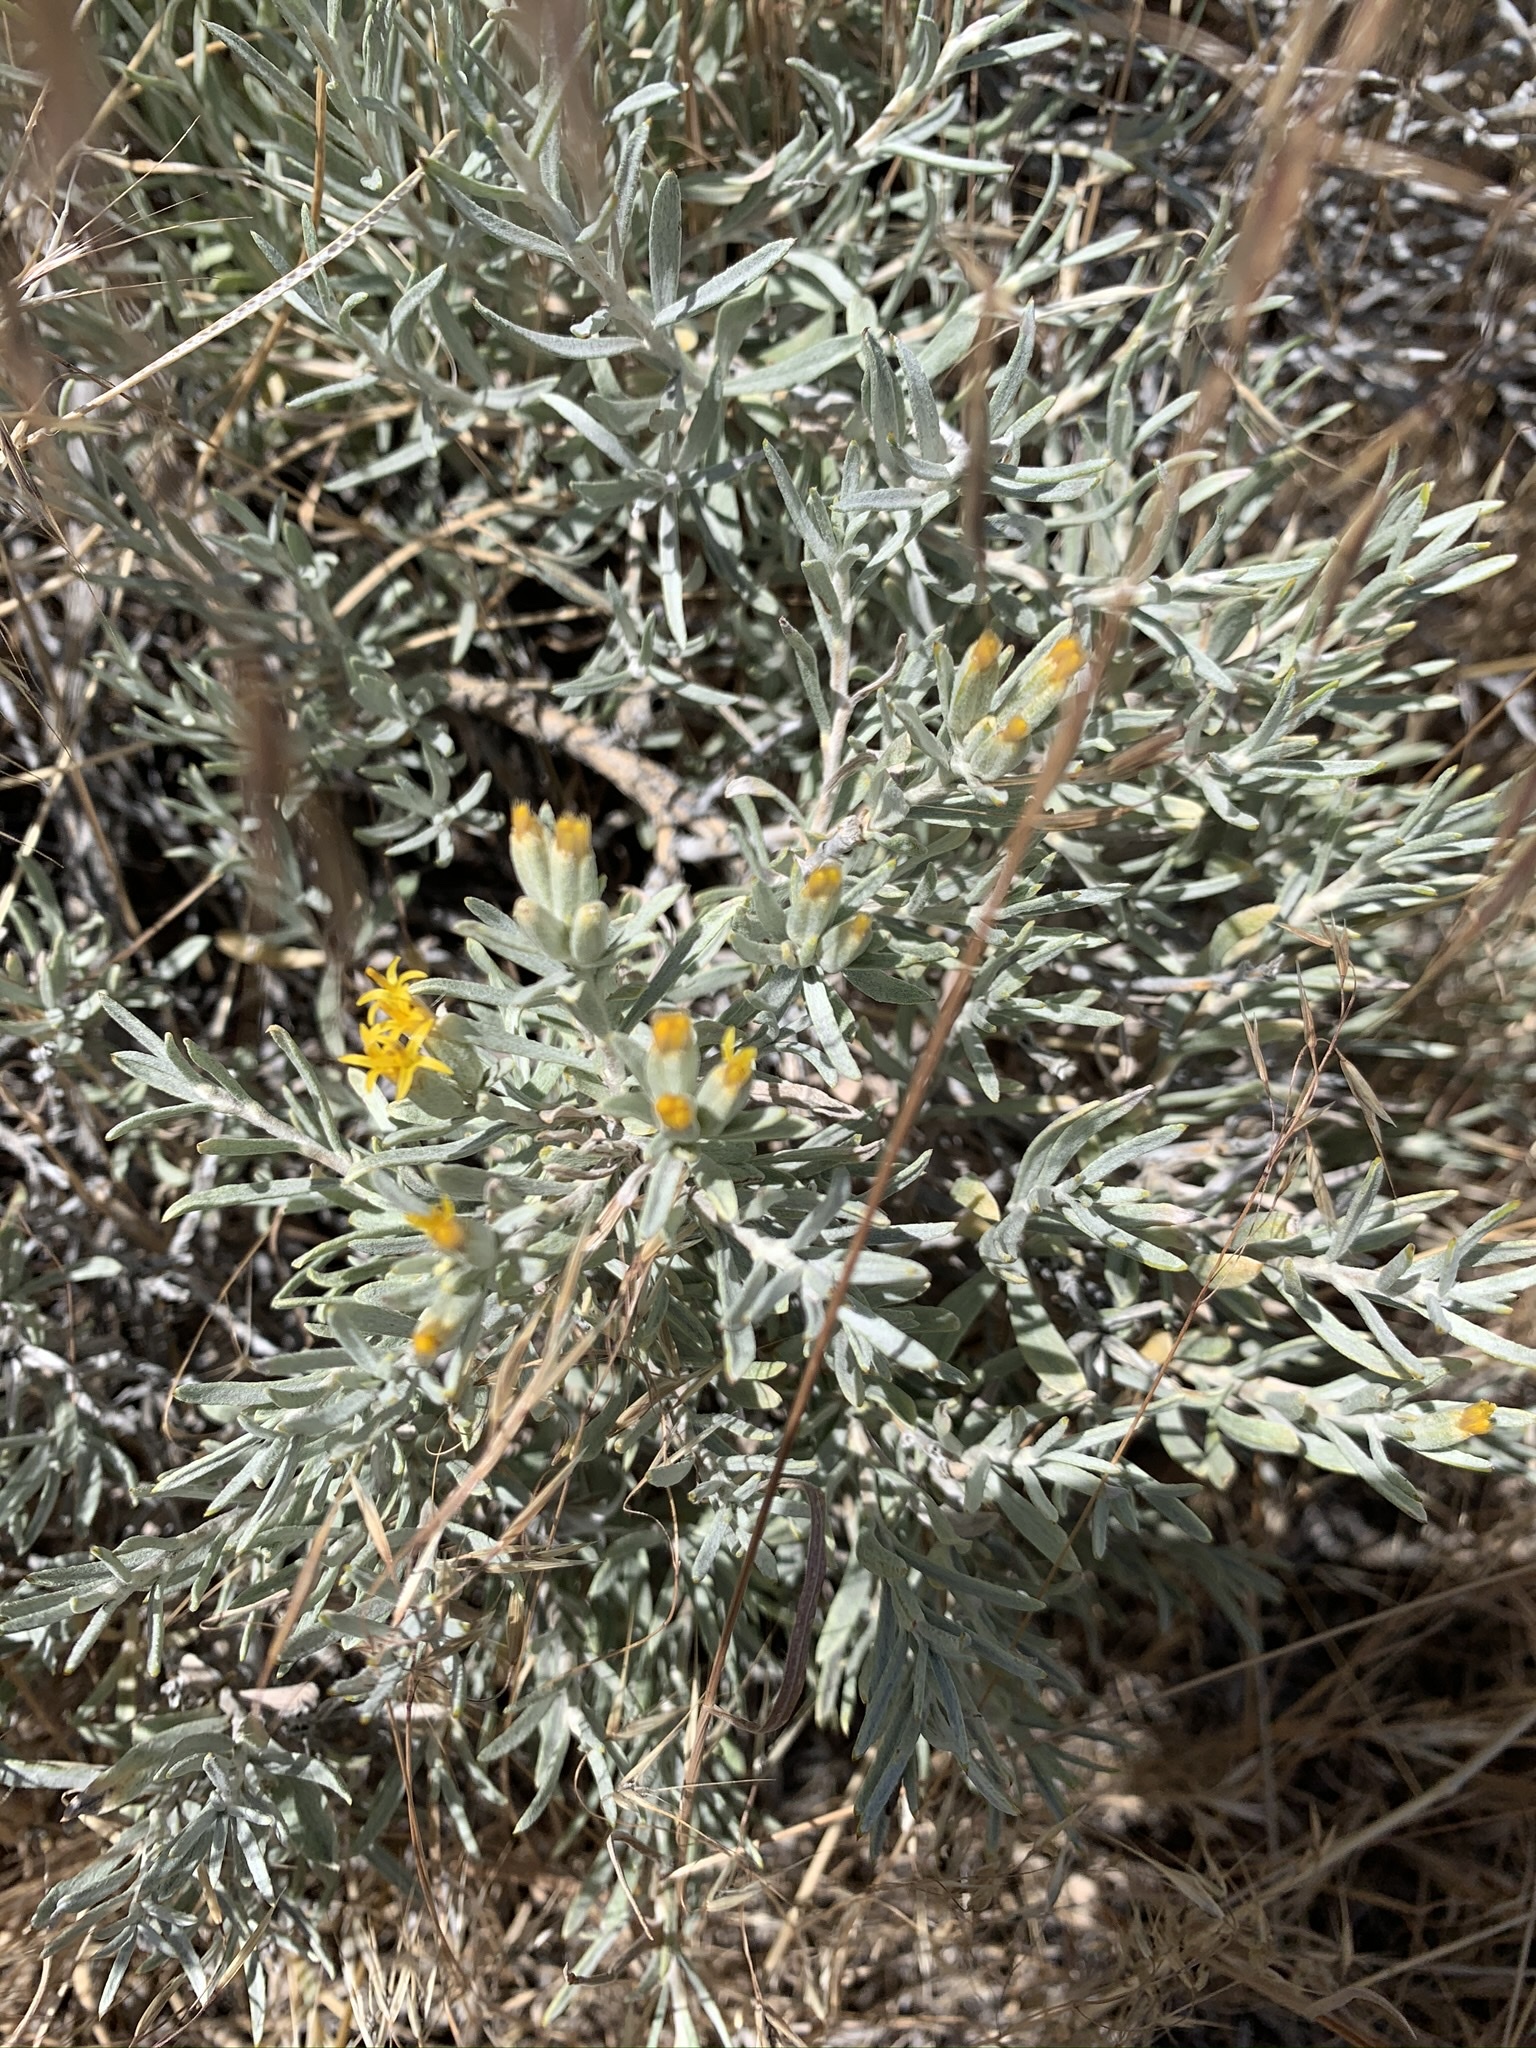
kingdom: Plantae
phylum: Tracheophyta
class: Magnoliopsida
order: Asterales
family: Asteraceae
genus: Tetradymia
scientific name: Tetradymia canescens
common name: Spineless horsebrush
